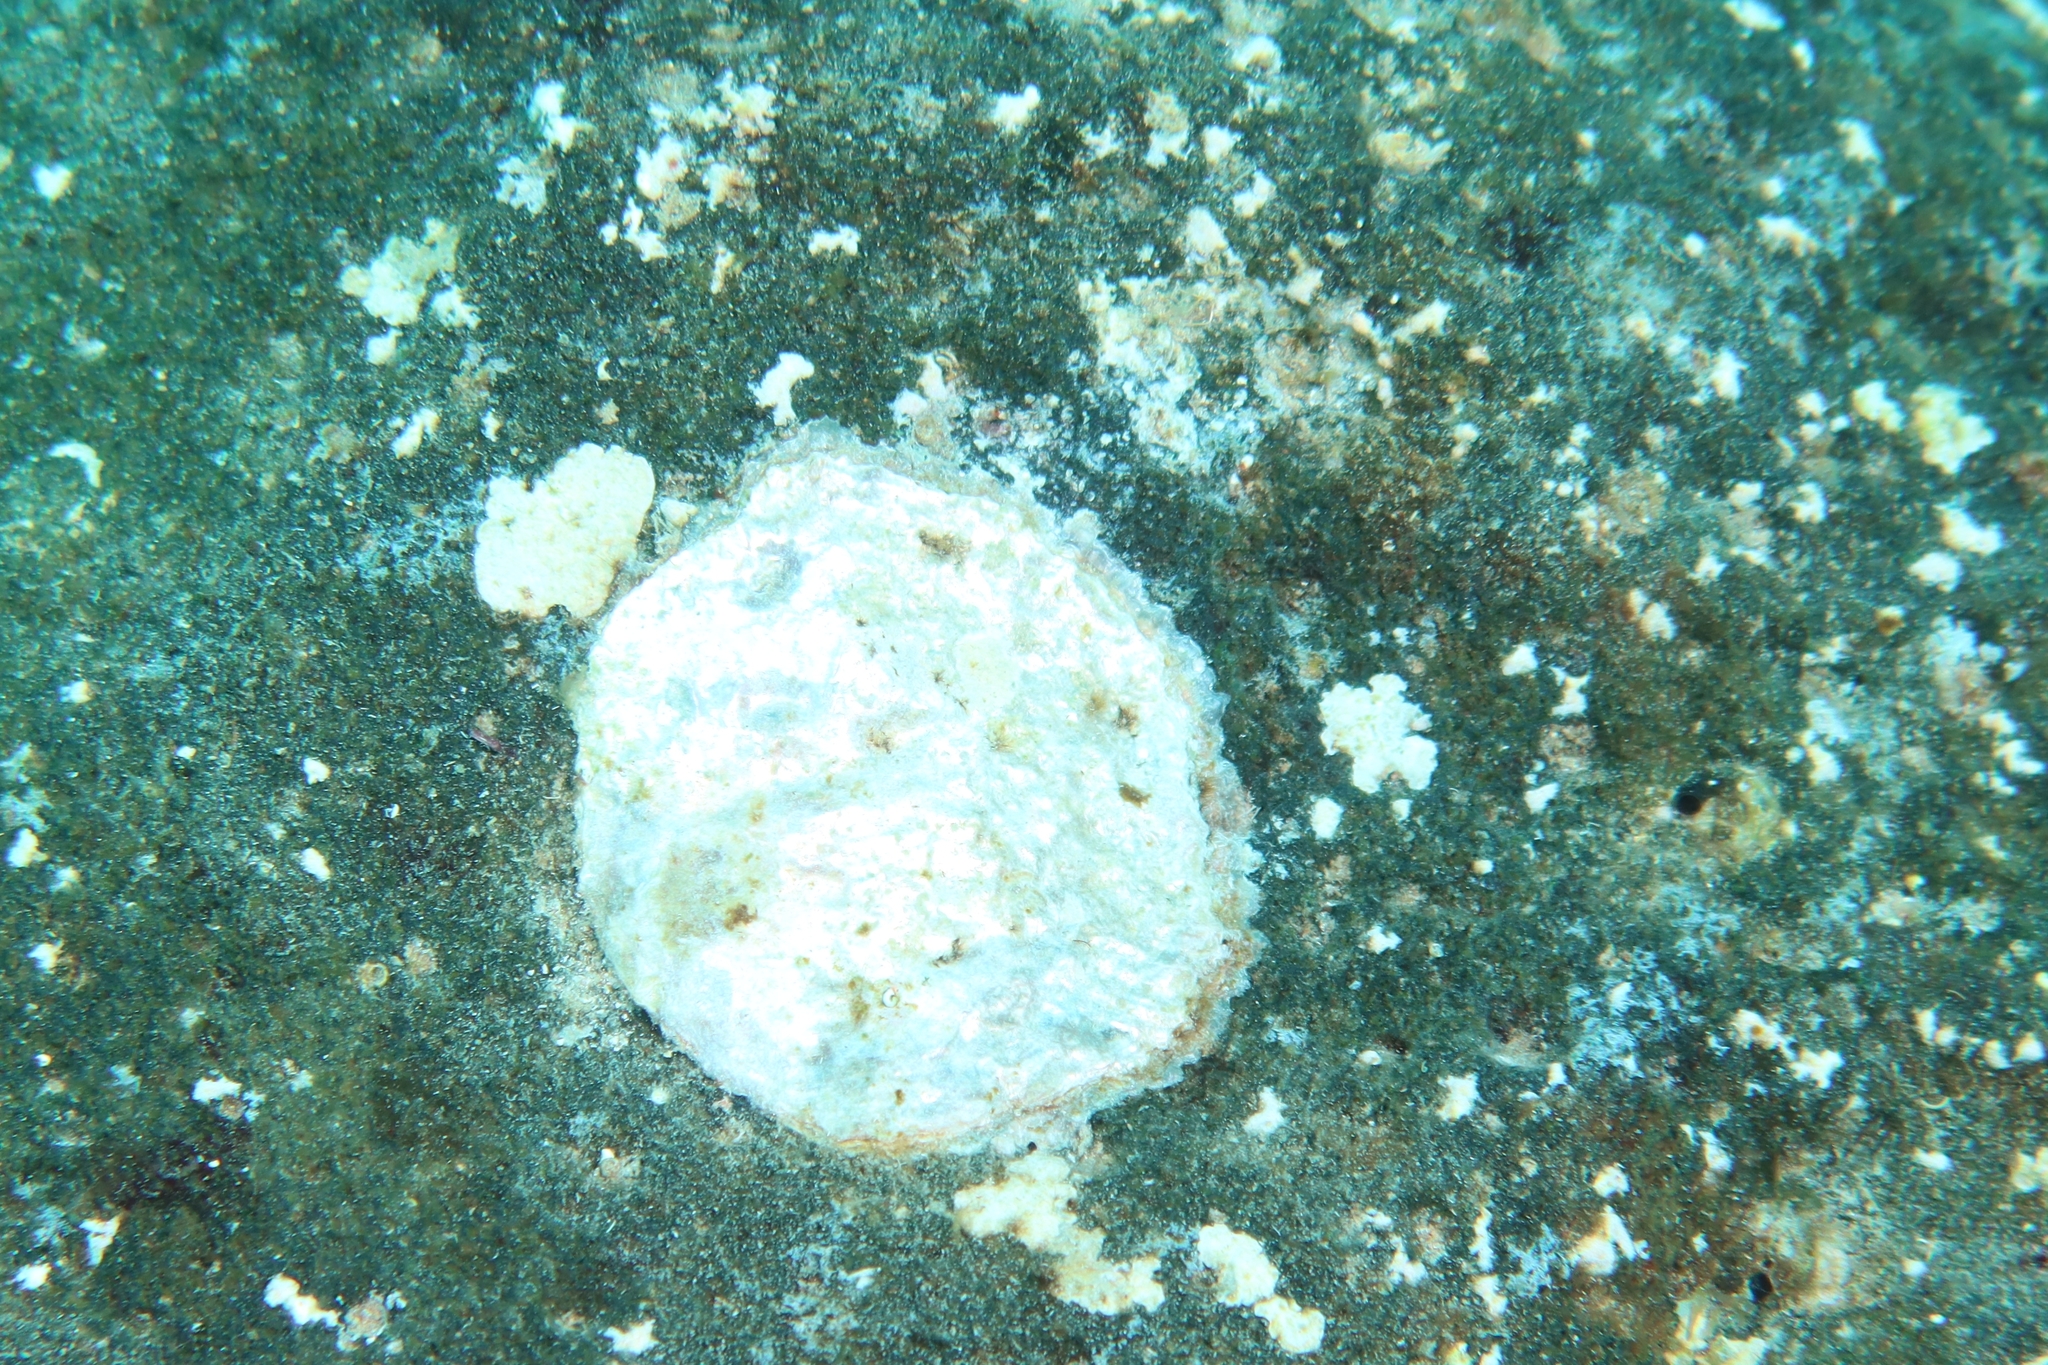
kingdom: Animalia
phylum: Mollusca
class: Bivalvia
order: Pectinida
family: Anomiidae
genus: Anomia
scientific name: Anomia ephippium
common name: Saddle oyster
